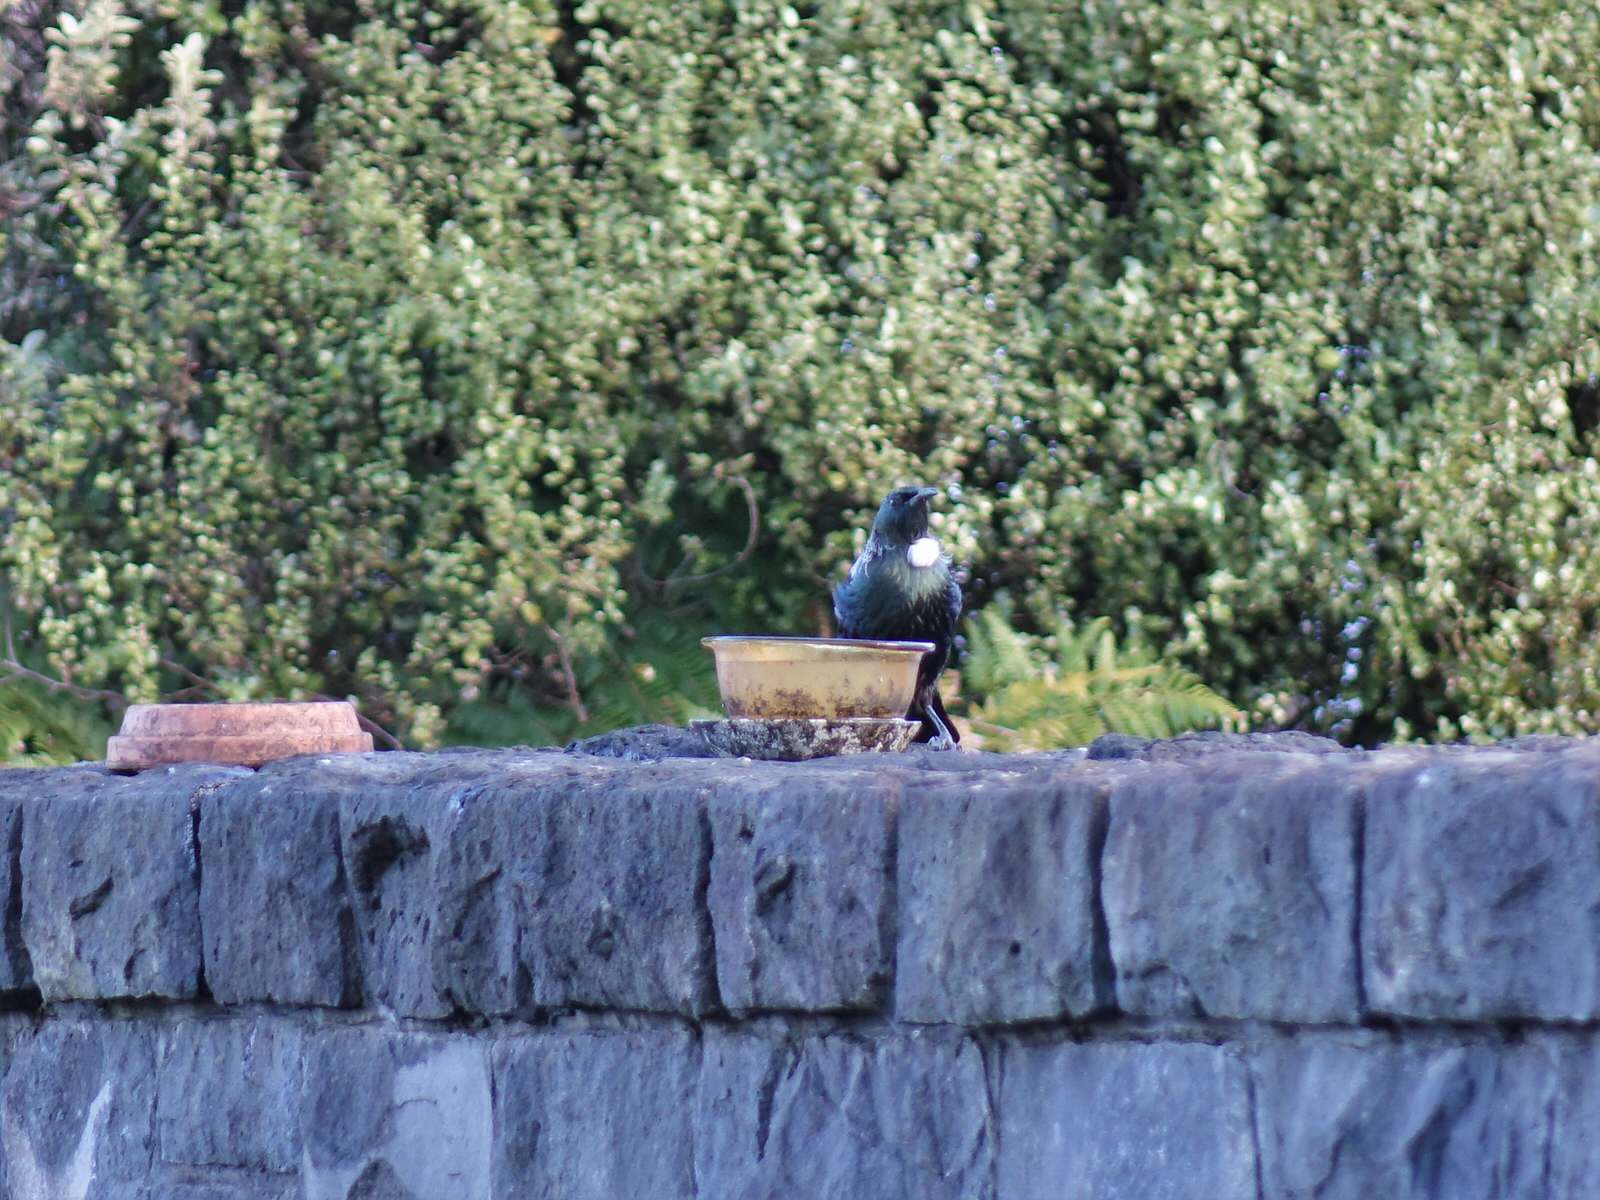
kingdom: Animalia
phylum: Chordata
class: Aves
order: Passeriformes
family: Meliphagidae
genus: Prosthemadera
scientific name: Prosthemadera novaeseelandiae
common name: Tui
